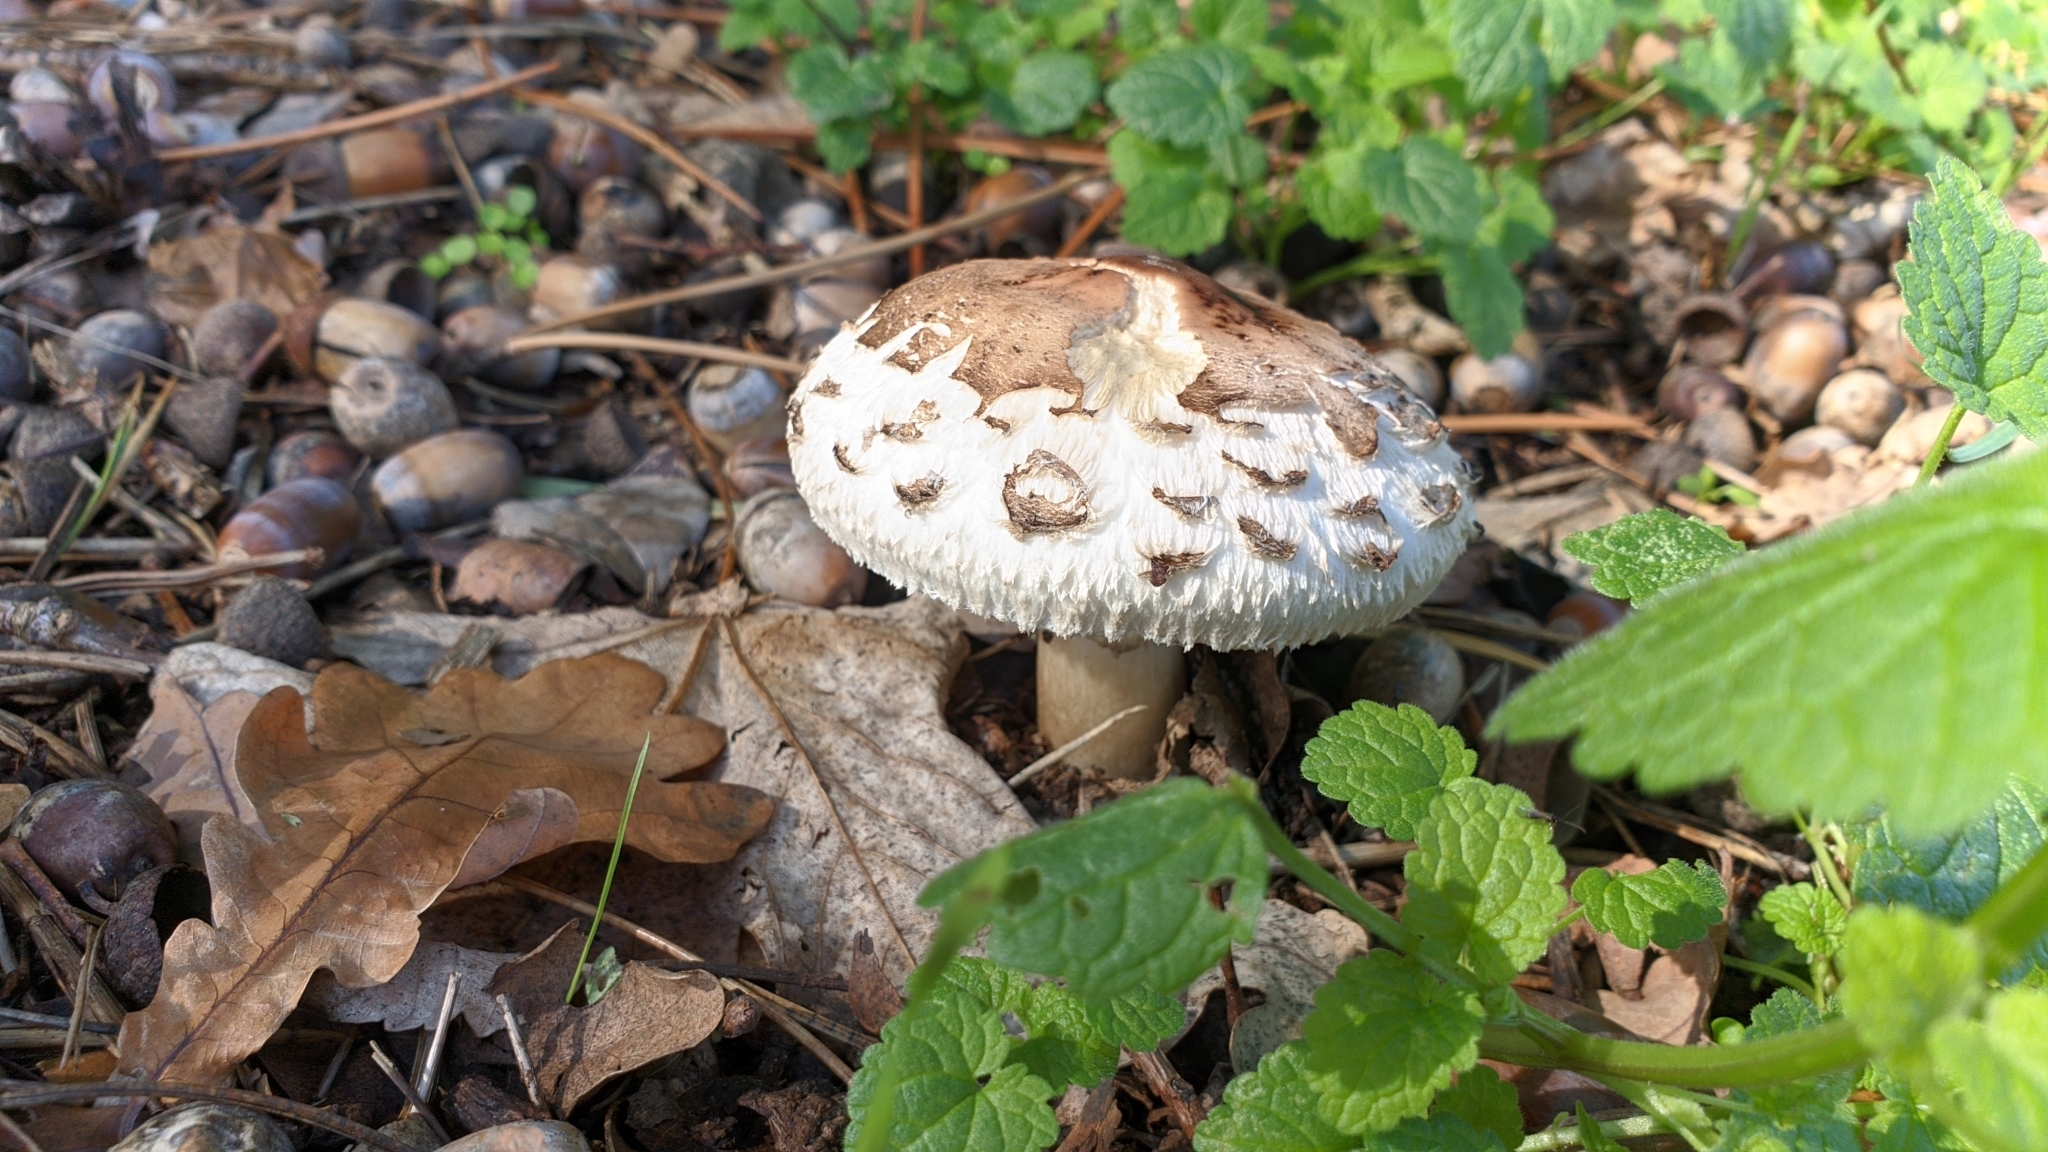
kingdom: Fungi
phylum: Basidiomycota
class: Agaricomycetes
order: Agaricales
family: Agaricaceae
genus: Chlorophyllum
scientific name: Chlorophyllum rhacodes
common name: Shaggy parasol
